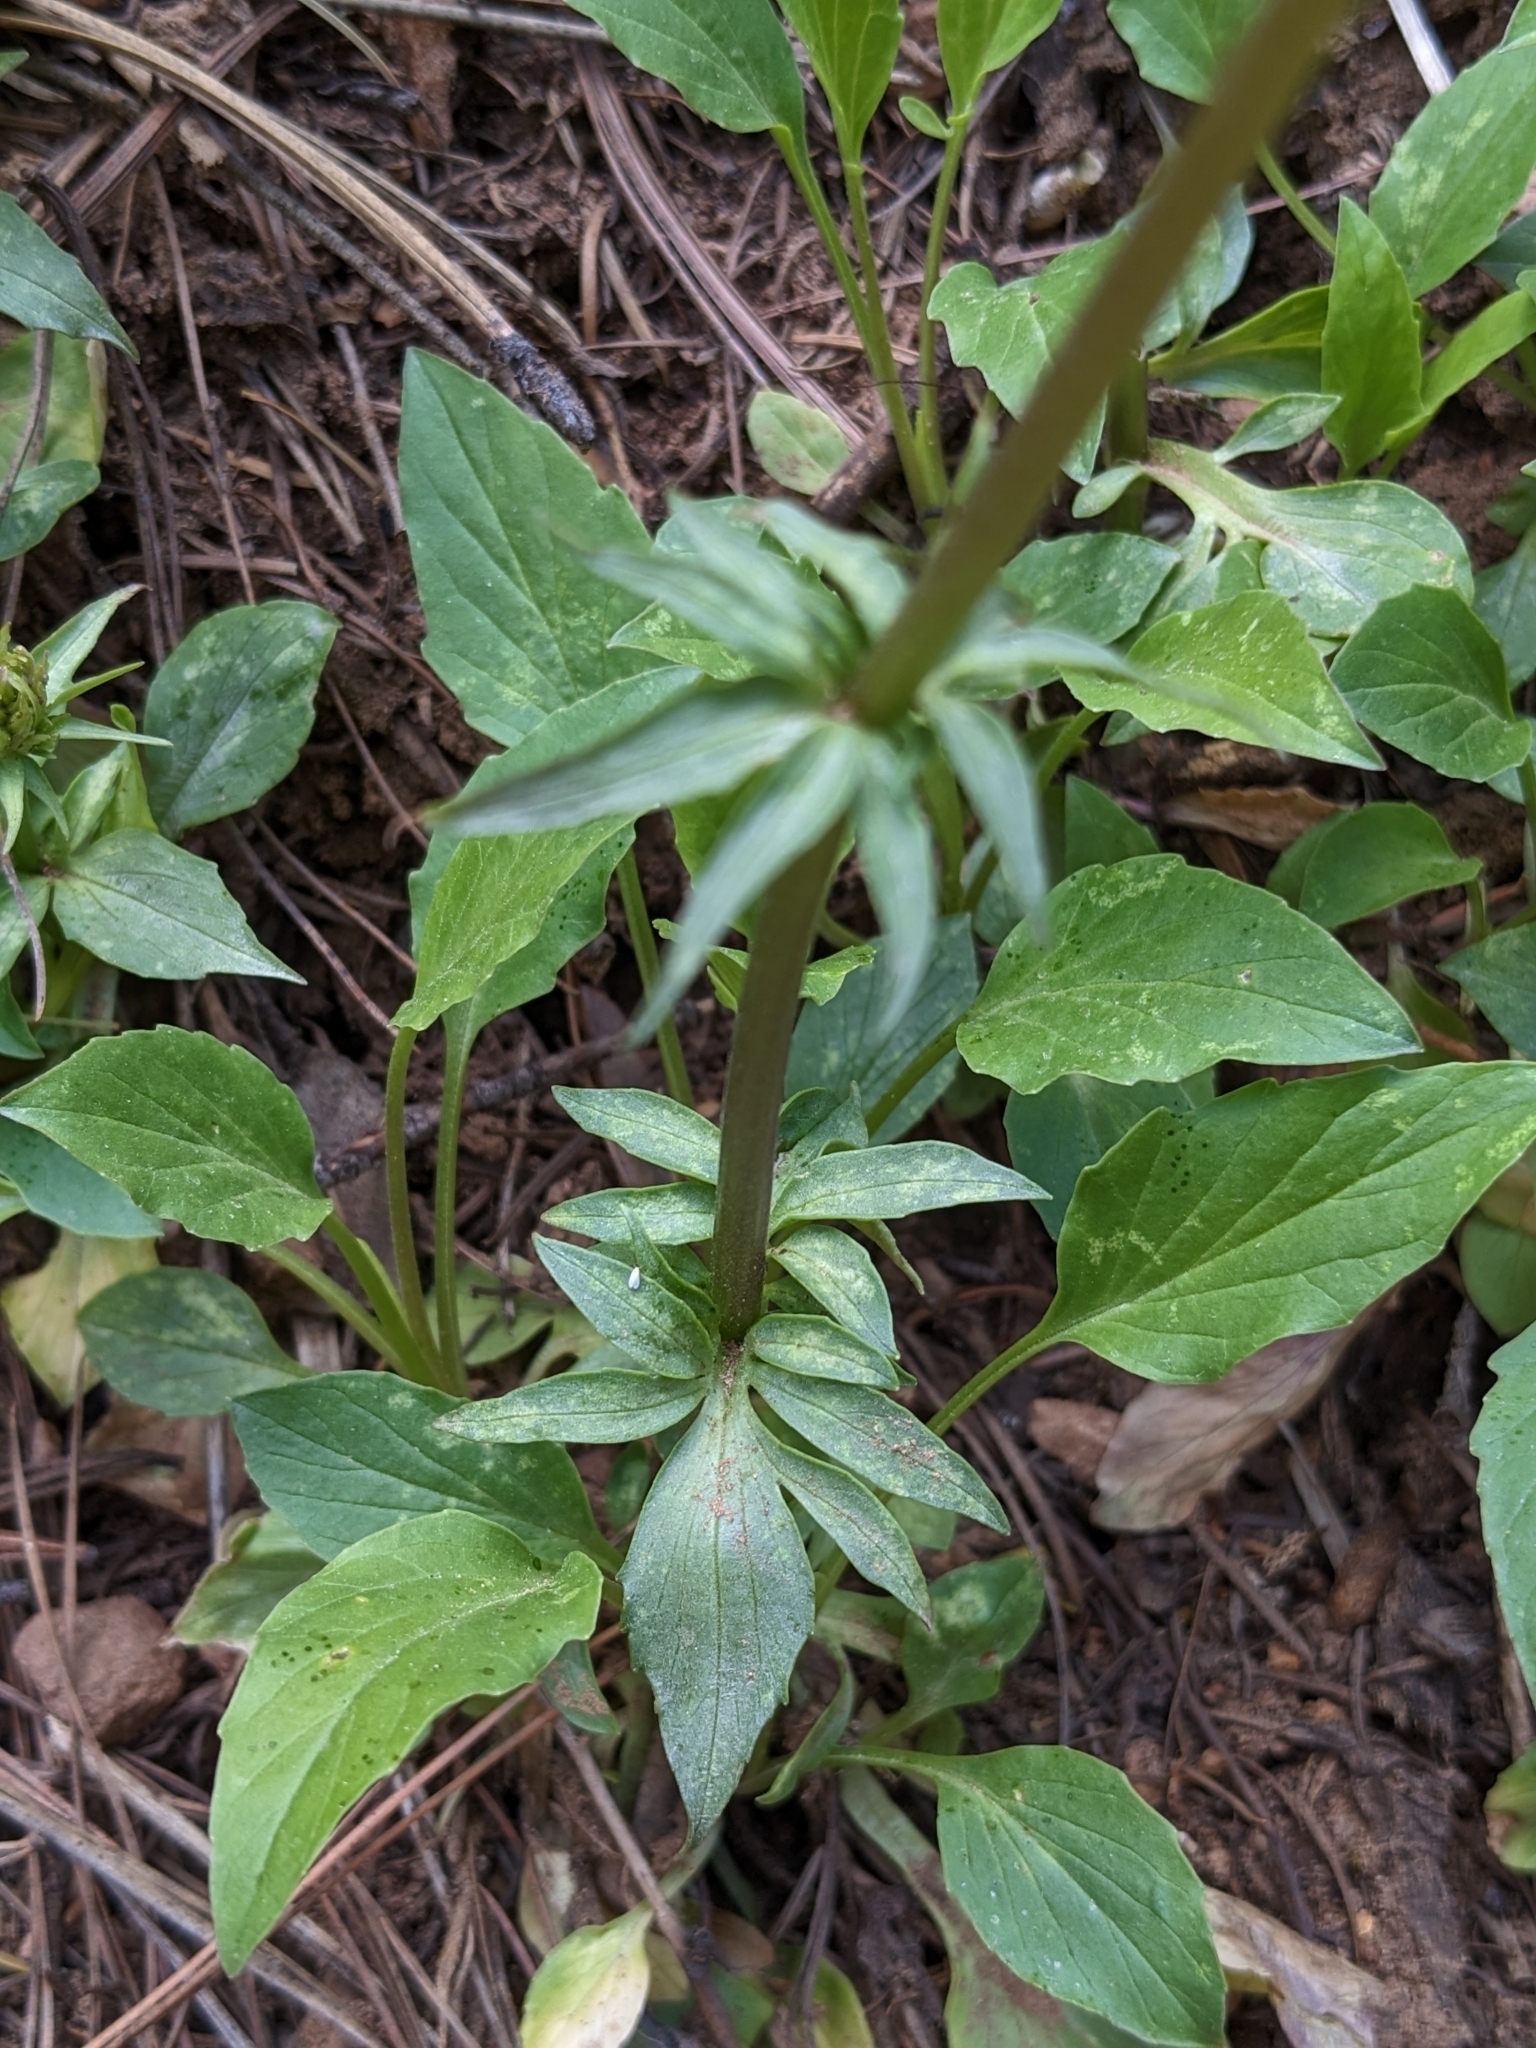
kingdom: Plantae
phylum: Tracheophyta
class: Magnoliopsida
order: Dipsacales
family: Caprifoliaceae
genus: Valeriana
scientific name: Valeriana arizonica
